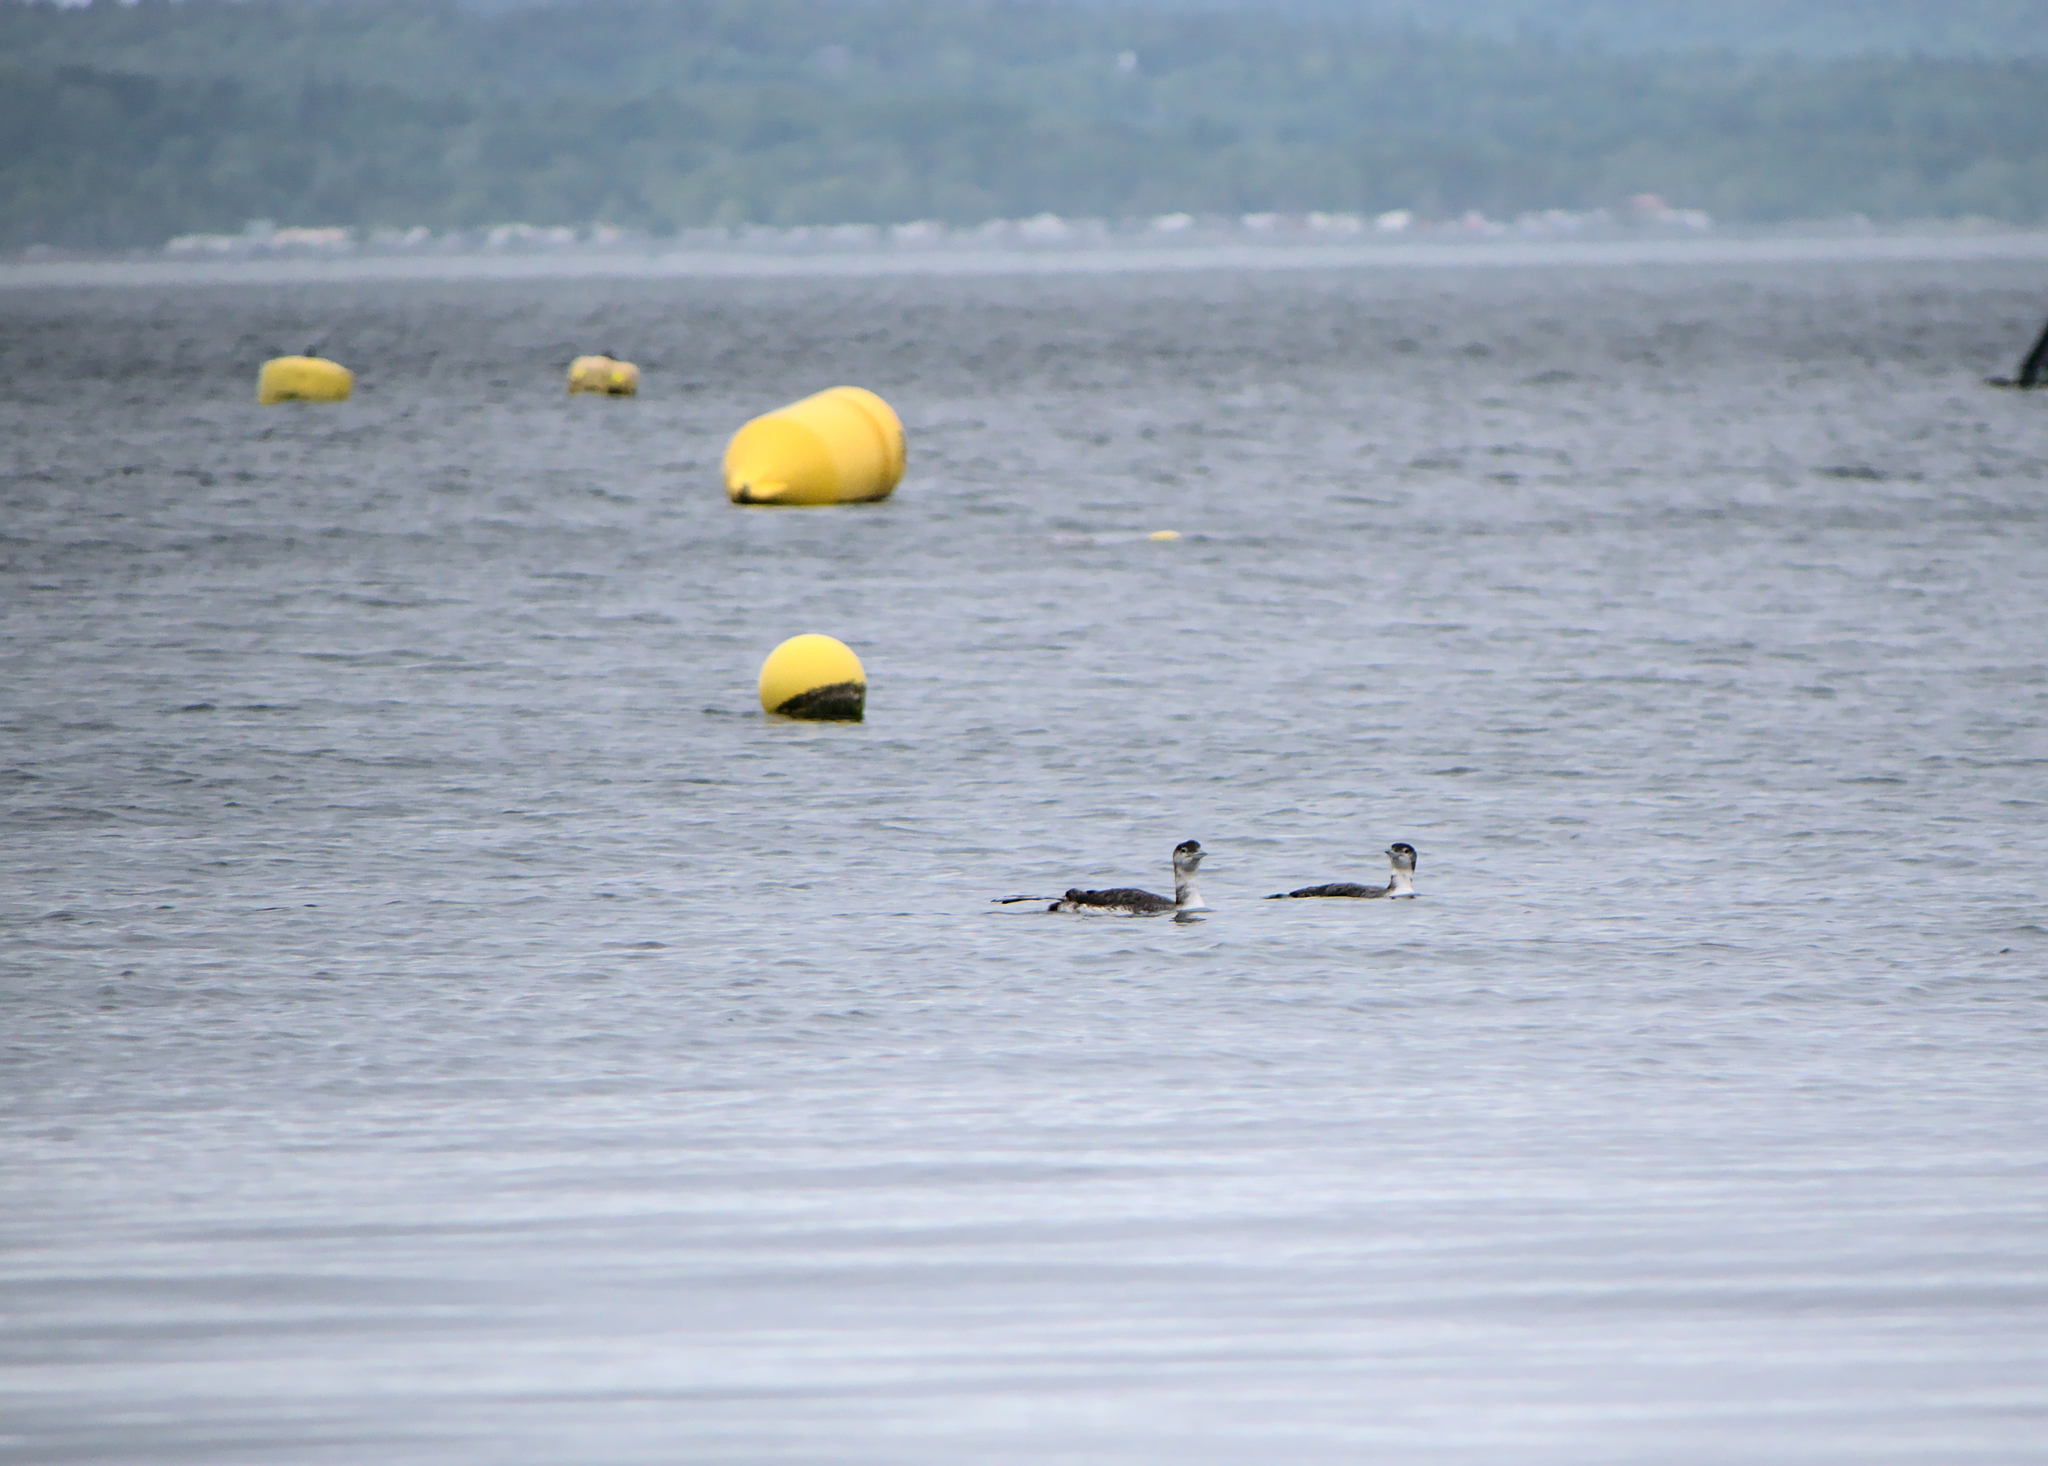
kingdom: Animalia
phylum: Chordata
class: Aves
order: Gaviiformes
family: Gaviidae
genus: Gavia
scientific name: Gavia immer
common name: Common loon
